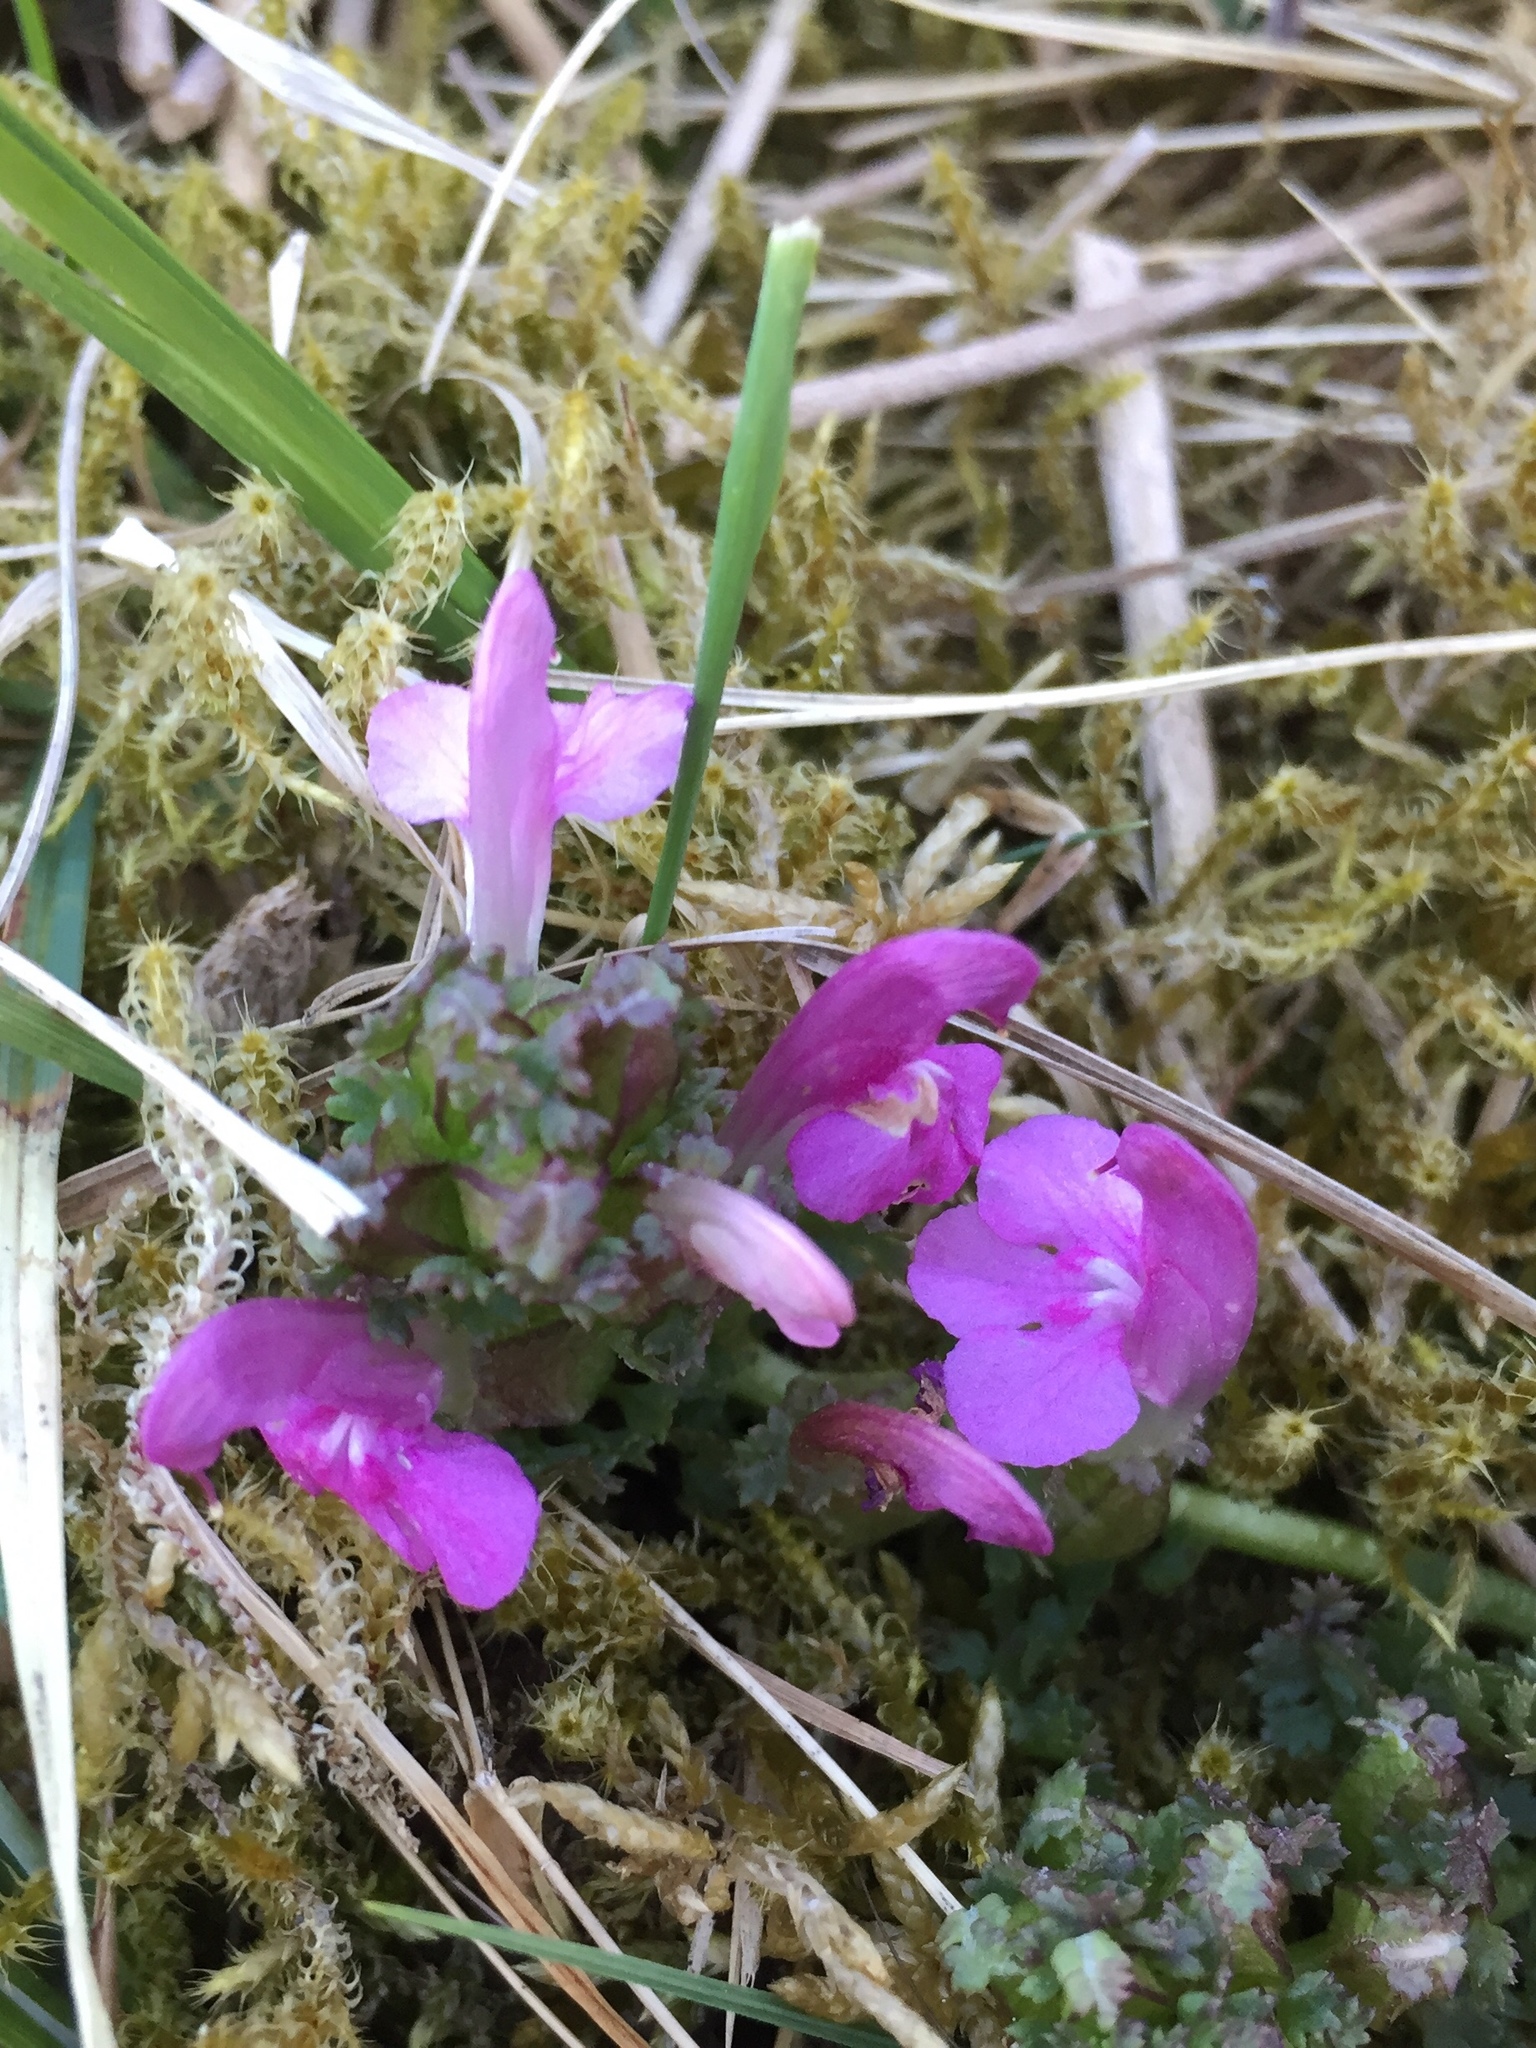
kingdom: Plantae
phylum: Tracheophyta
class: Magnoliopsida
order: Lamiales
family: Orobanchaceae
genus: Pedicularis
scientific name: Pedicularis sylvatica
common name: Lousewort
